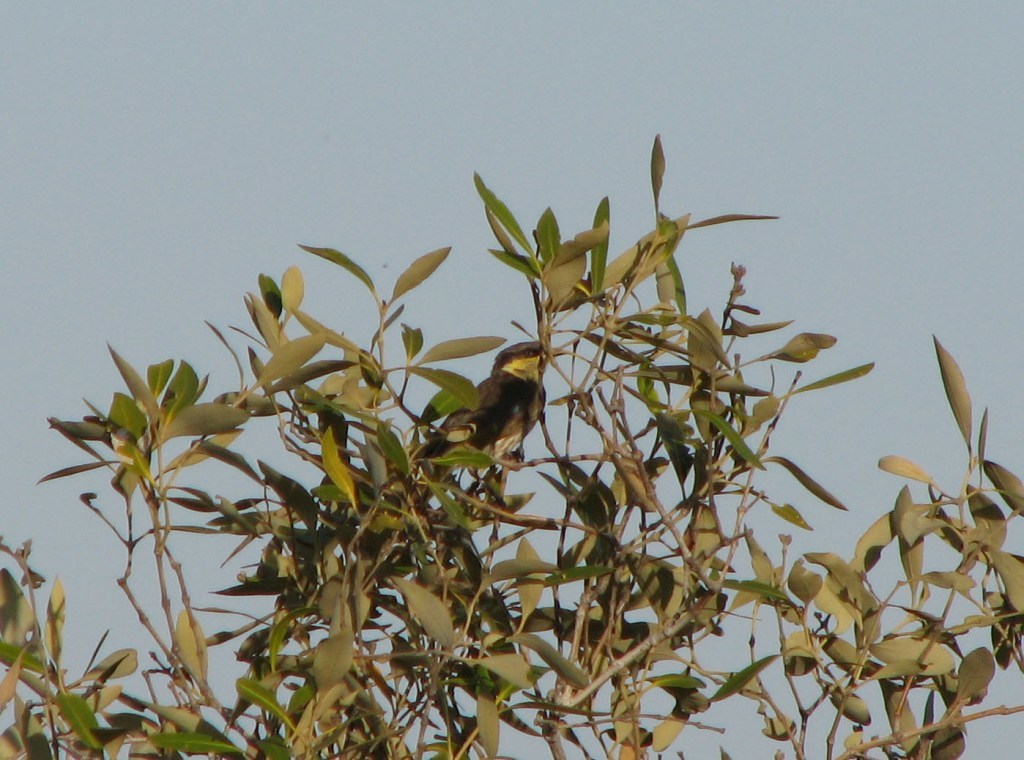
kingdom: Animalia
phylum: Chordata
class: Aves
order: Passeriformes
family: Meliphagidae
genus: Gavicalis
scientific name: Gavicalis fasciogularis
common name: Mangrove honeyeater
